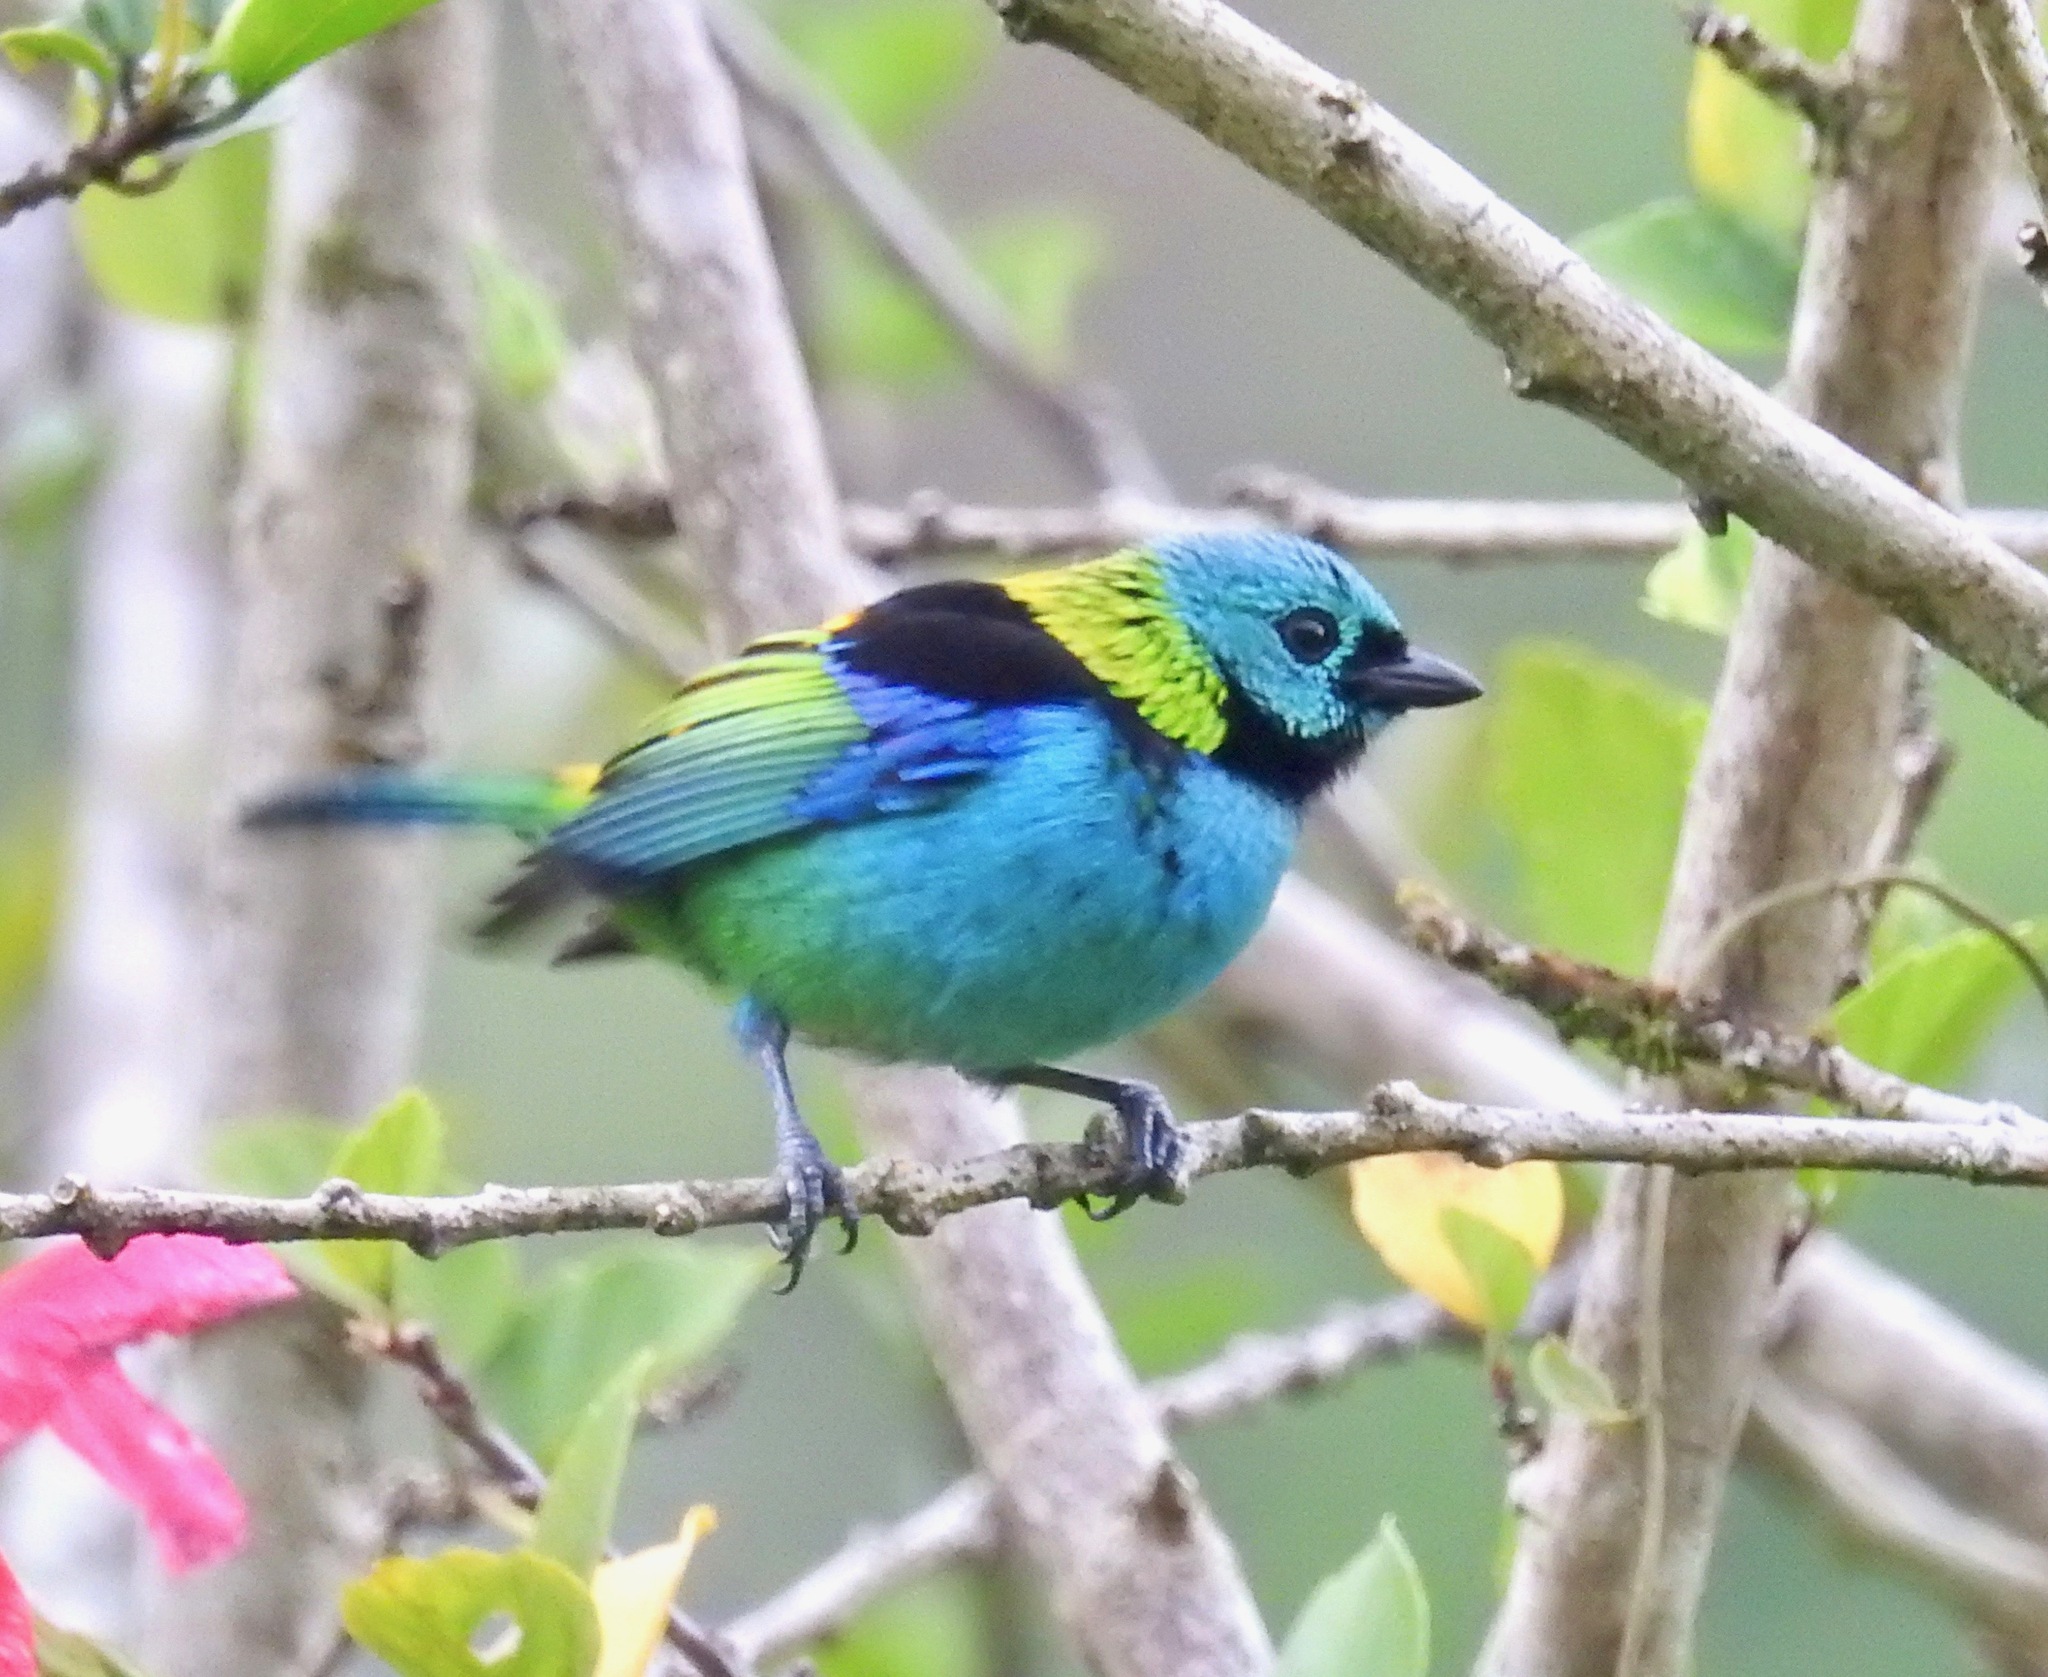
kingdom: Animalia
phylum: Chordata
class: Aves
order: Passeriformes
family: Thraupidae
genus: Tangara
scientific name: Tangara seledon
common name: Green-headed tanager
